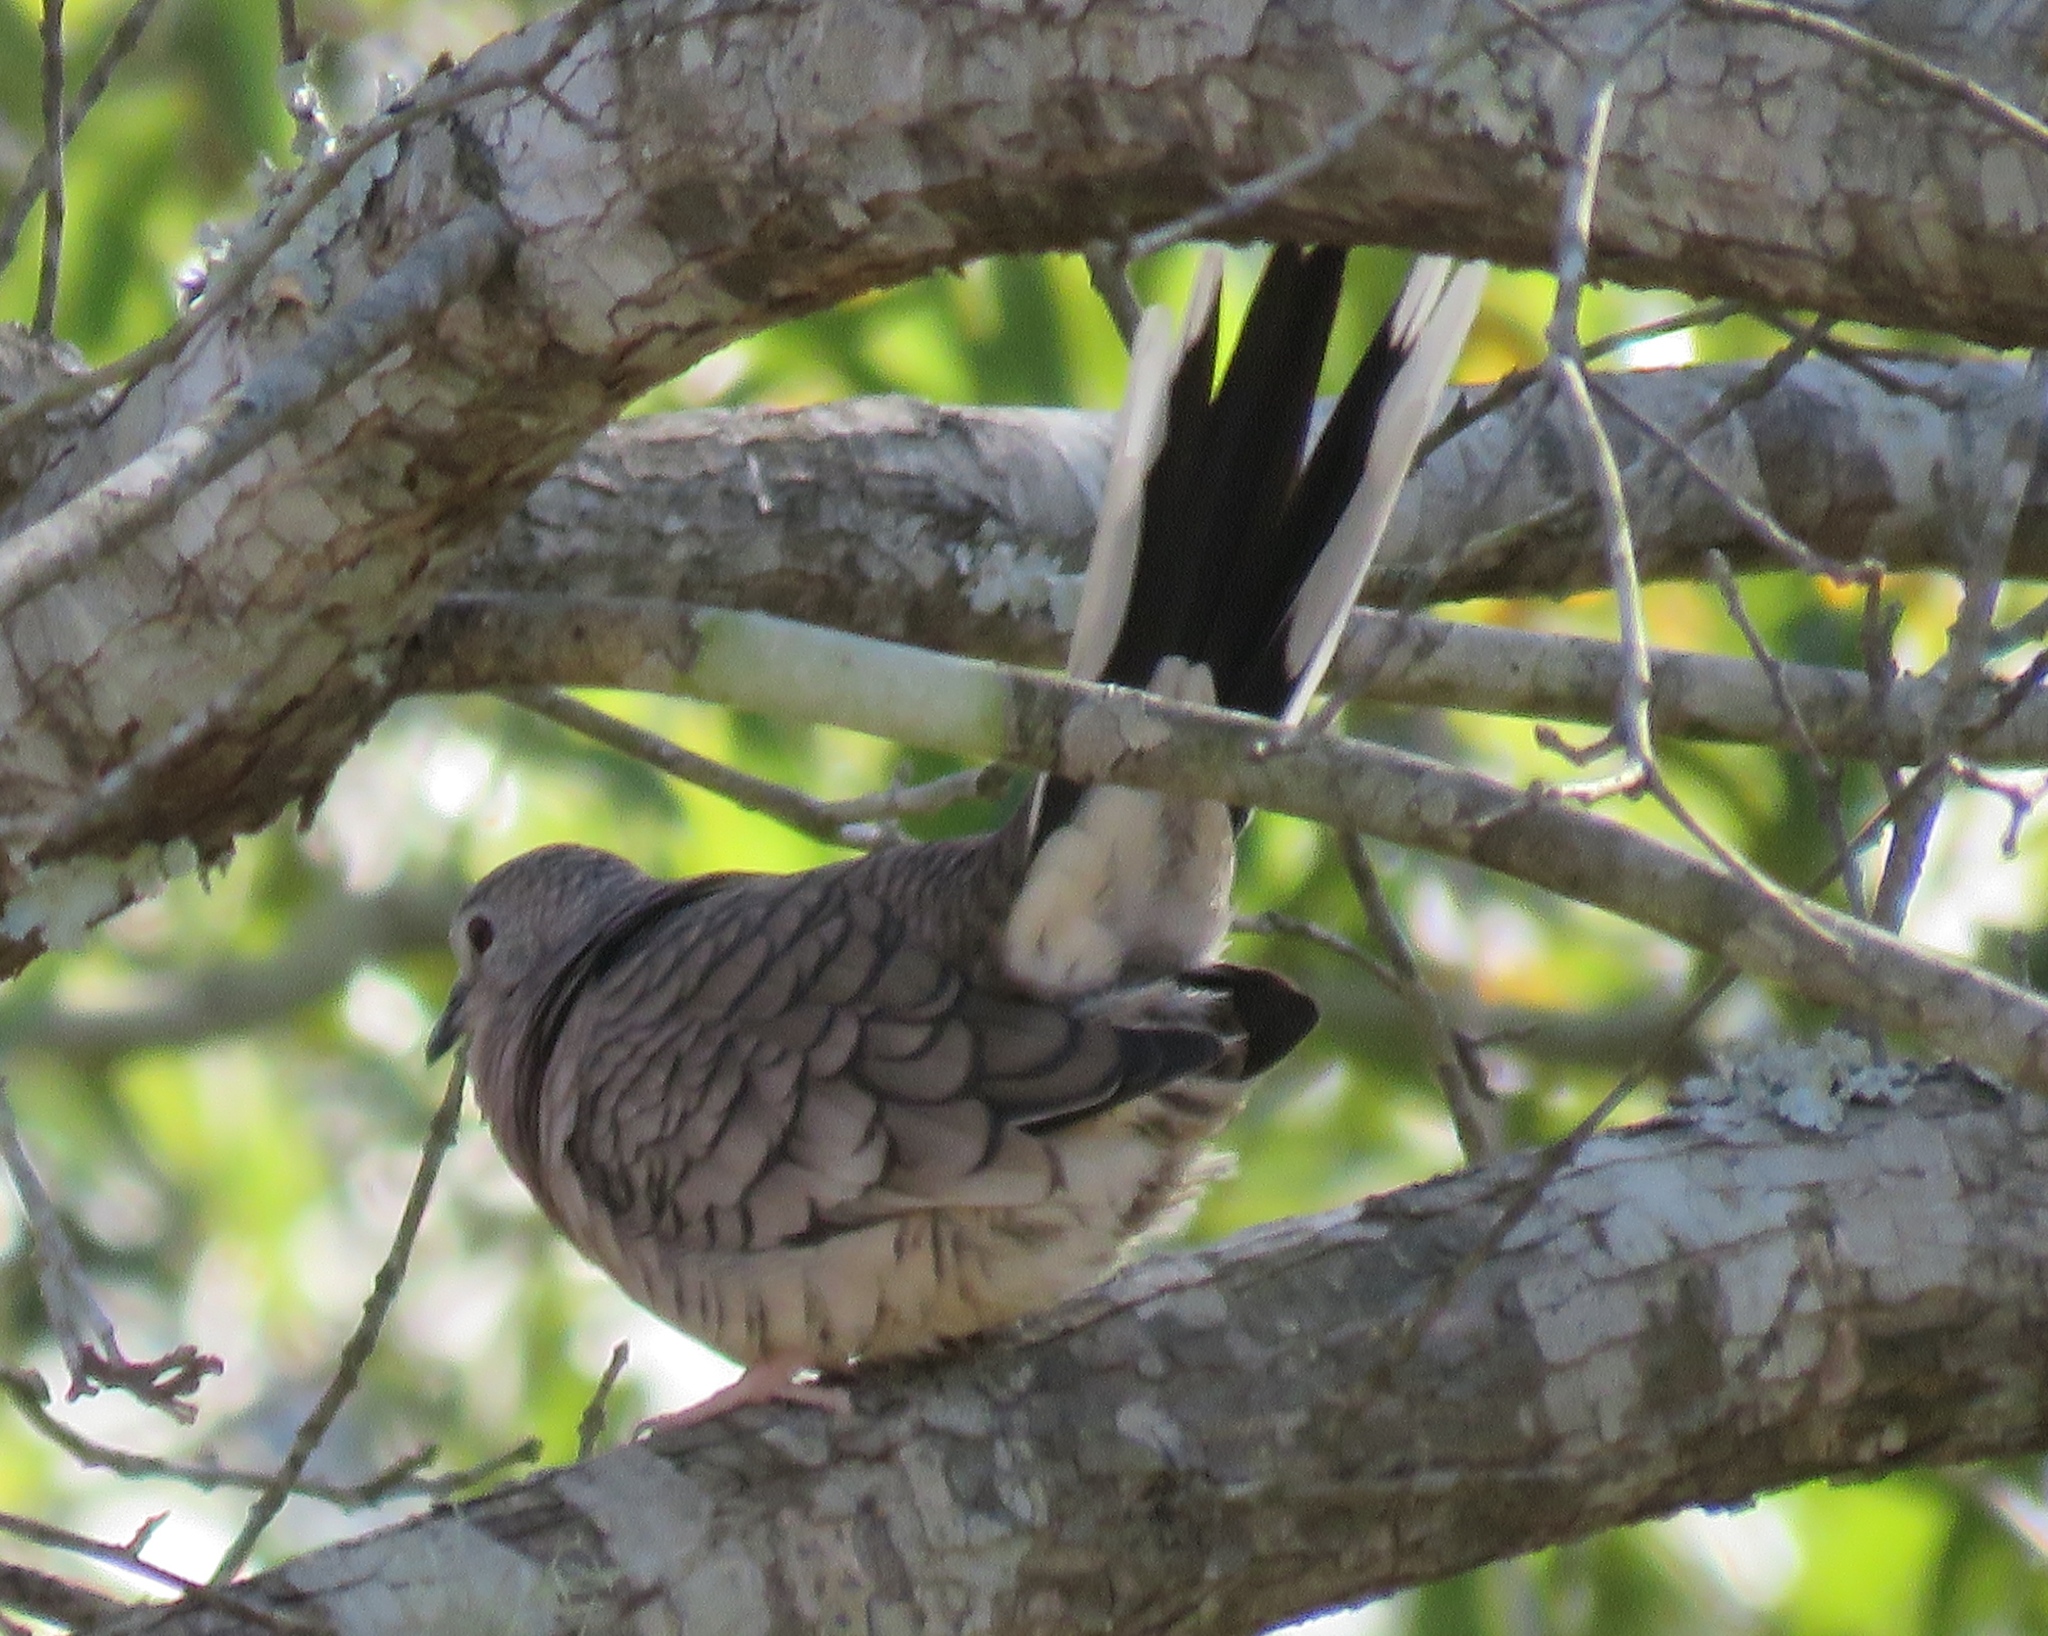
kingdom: Animalia
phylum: Chordata
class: Aves
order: Columbiformes
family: Columbidae
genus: Columbina
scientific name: Columbina inca
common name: Inca dove
